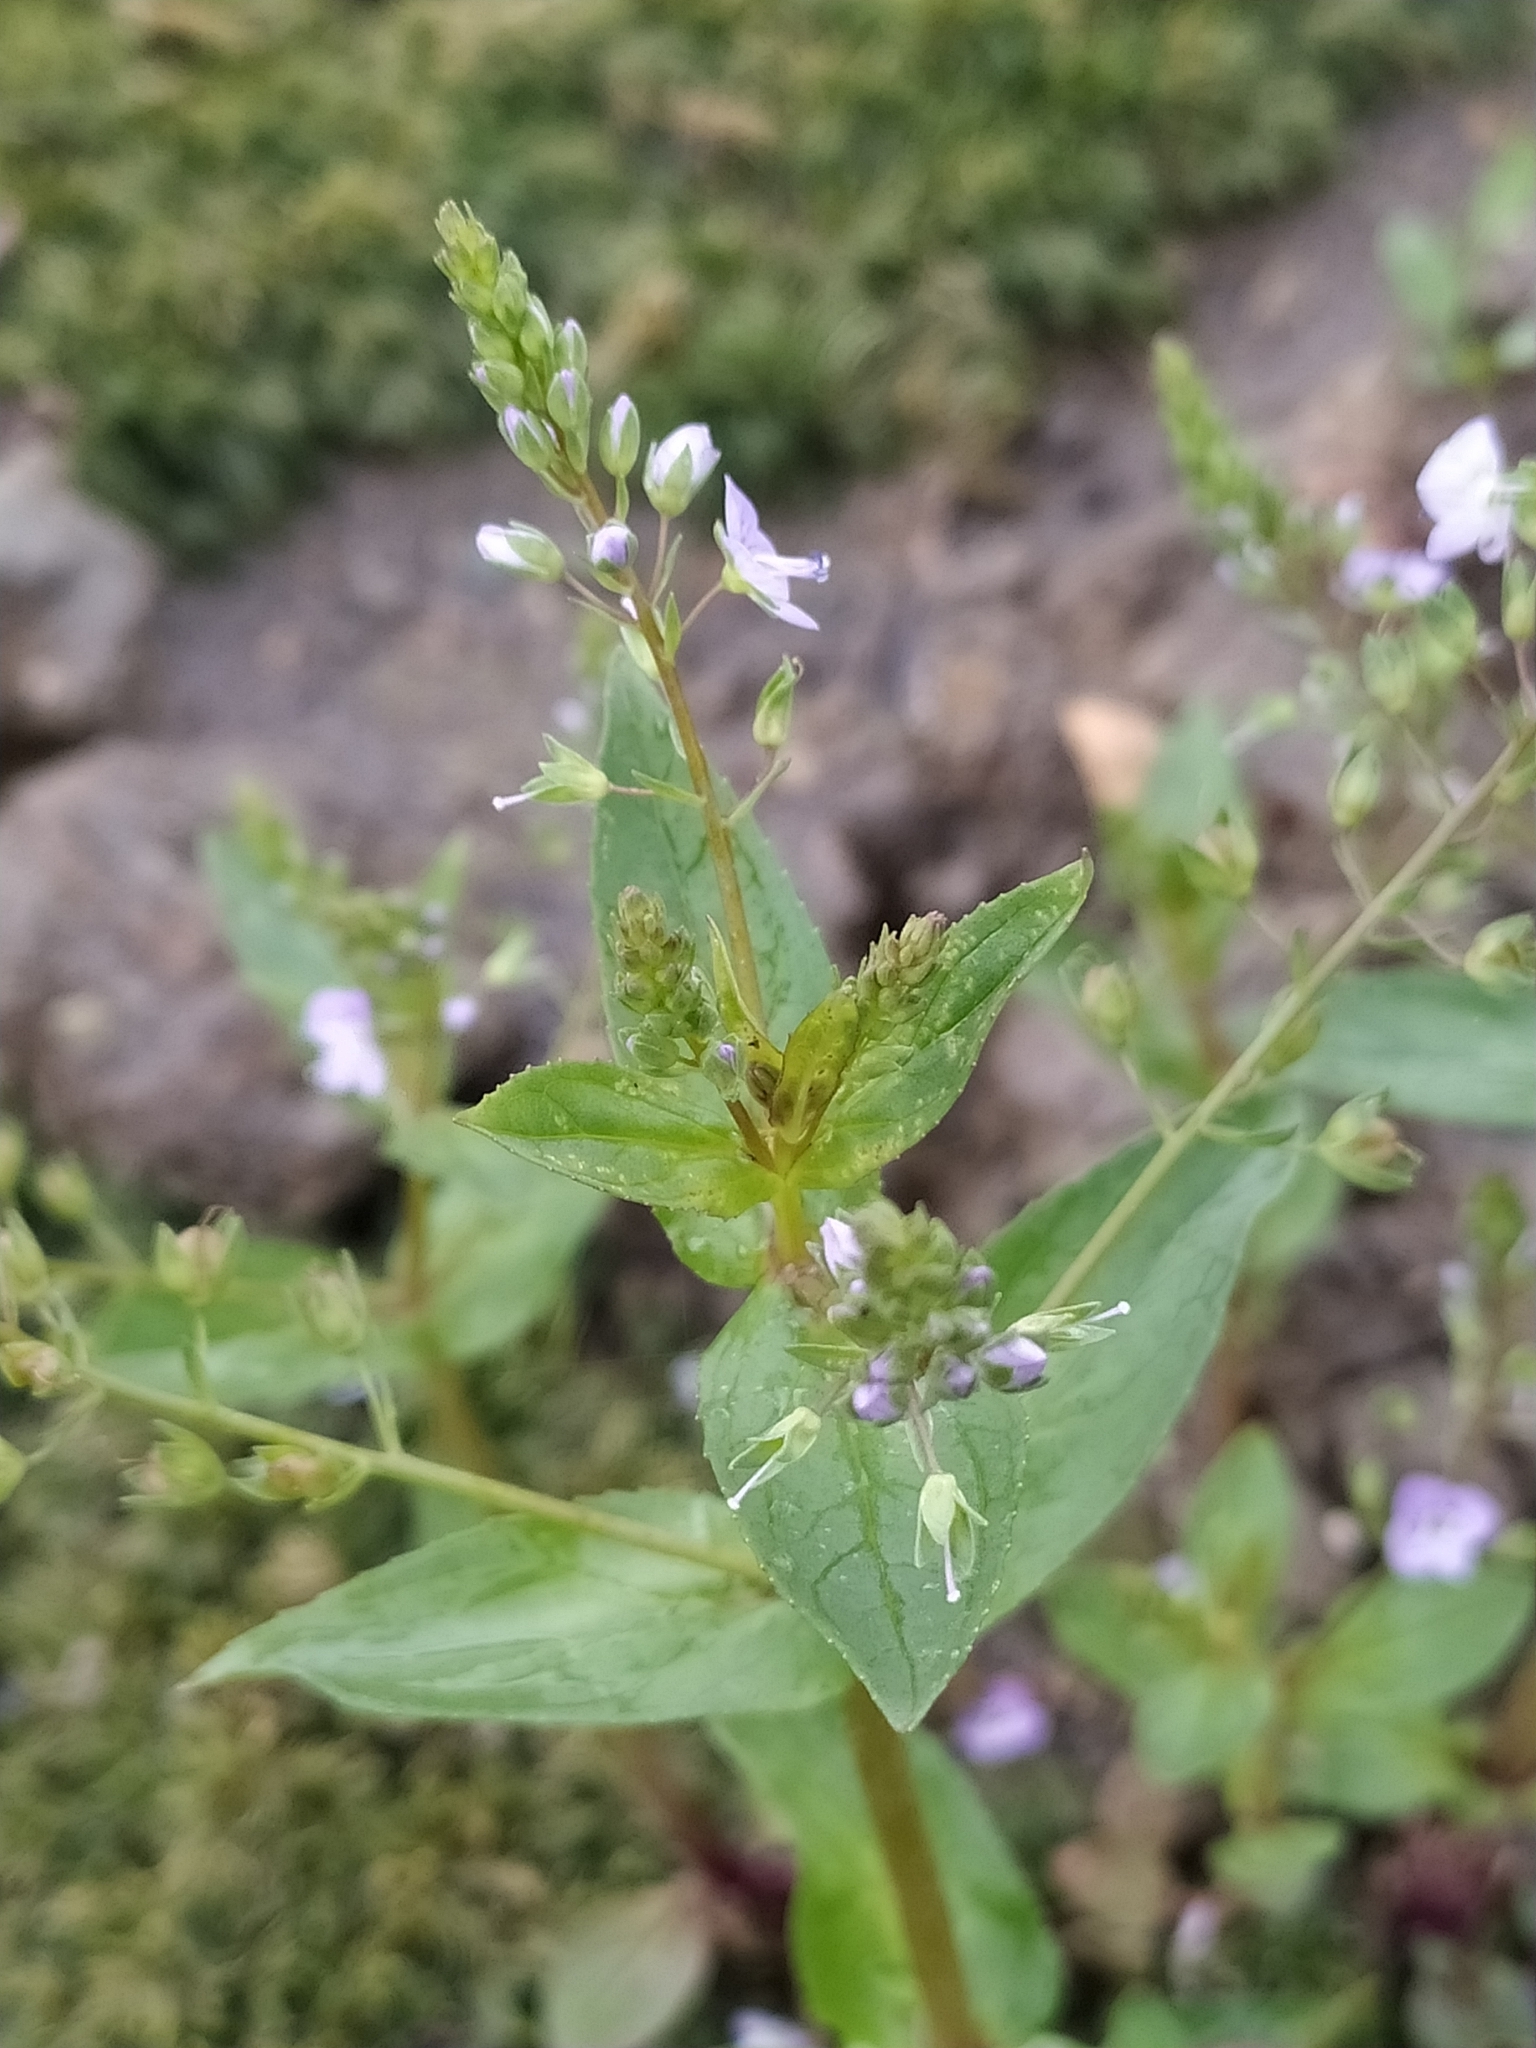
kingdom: Plantae
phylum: Tracheophyta
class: Magnoliopsida
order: Lamiales
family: Plantaginaceae
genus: Veronica
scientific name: Veronica anagallis-aquatica
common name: Water speedwell
